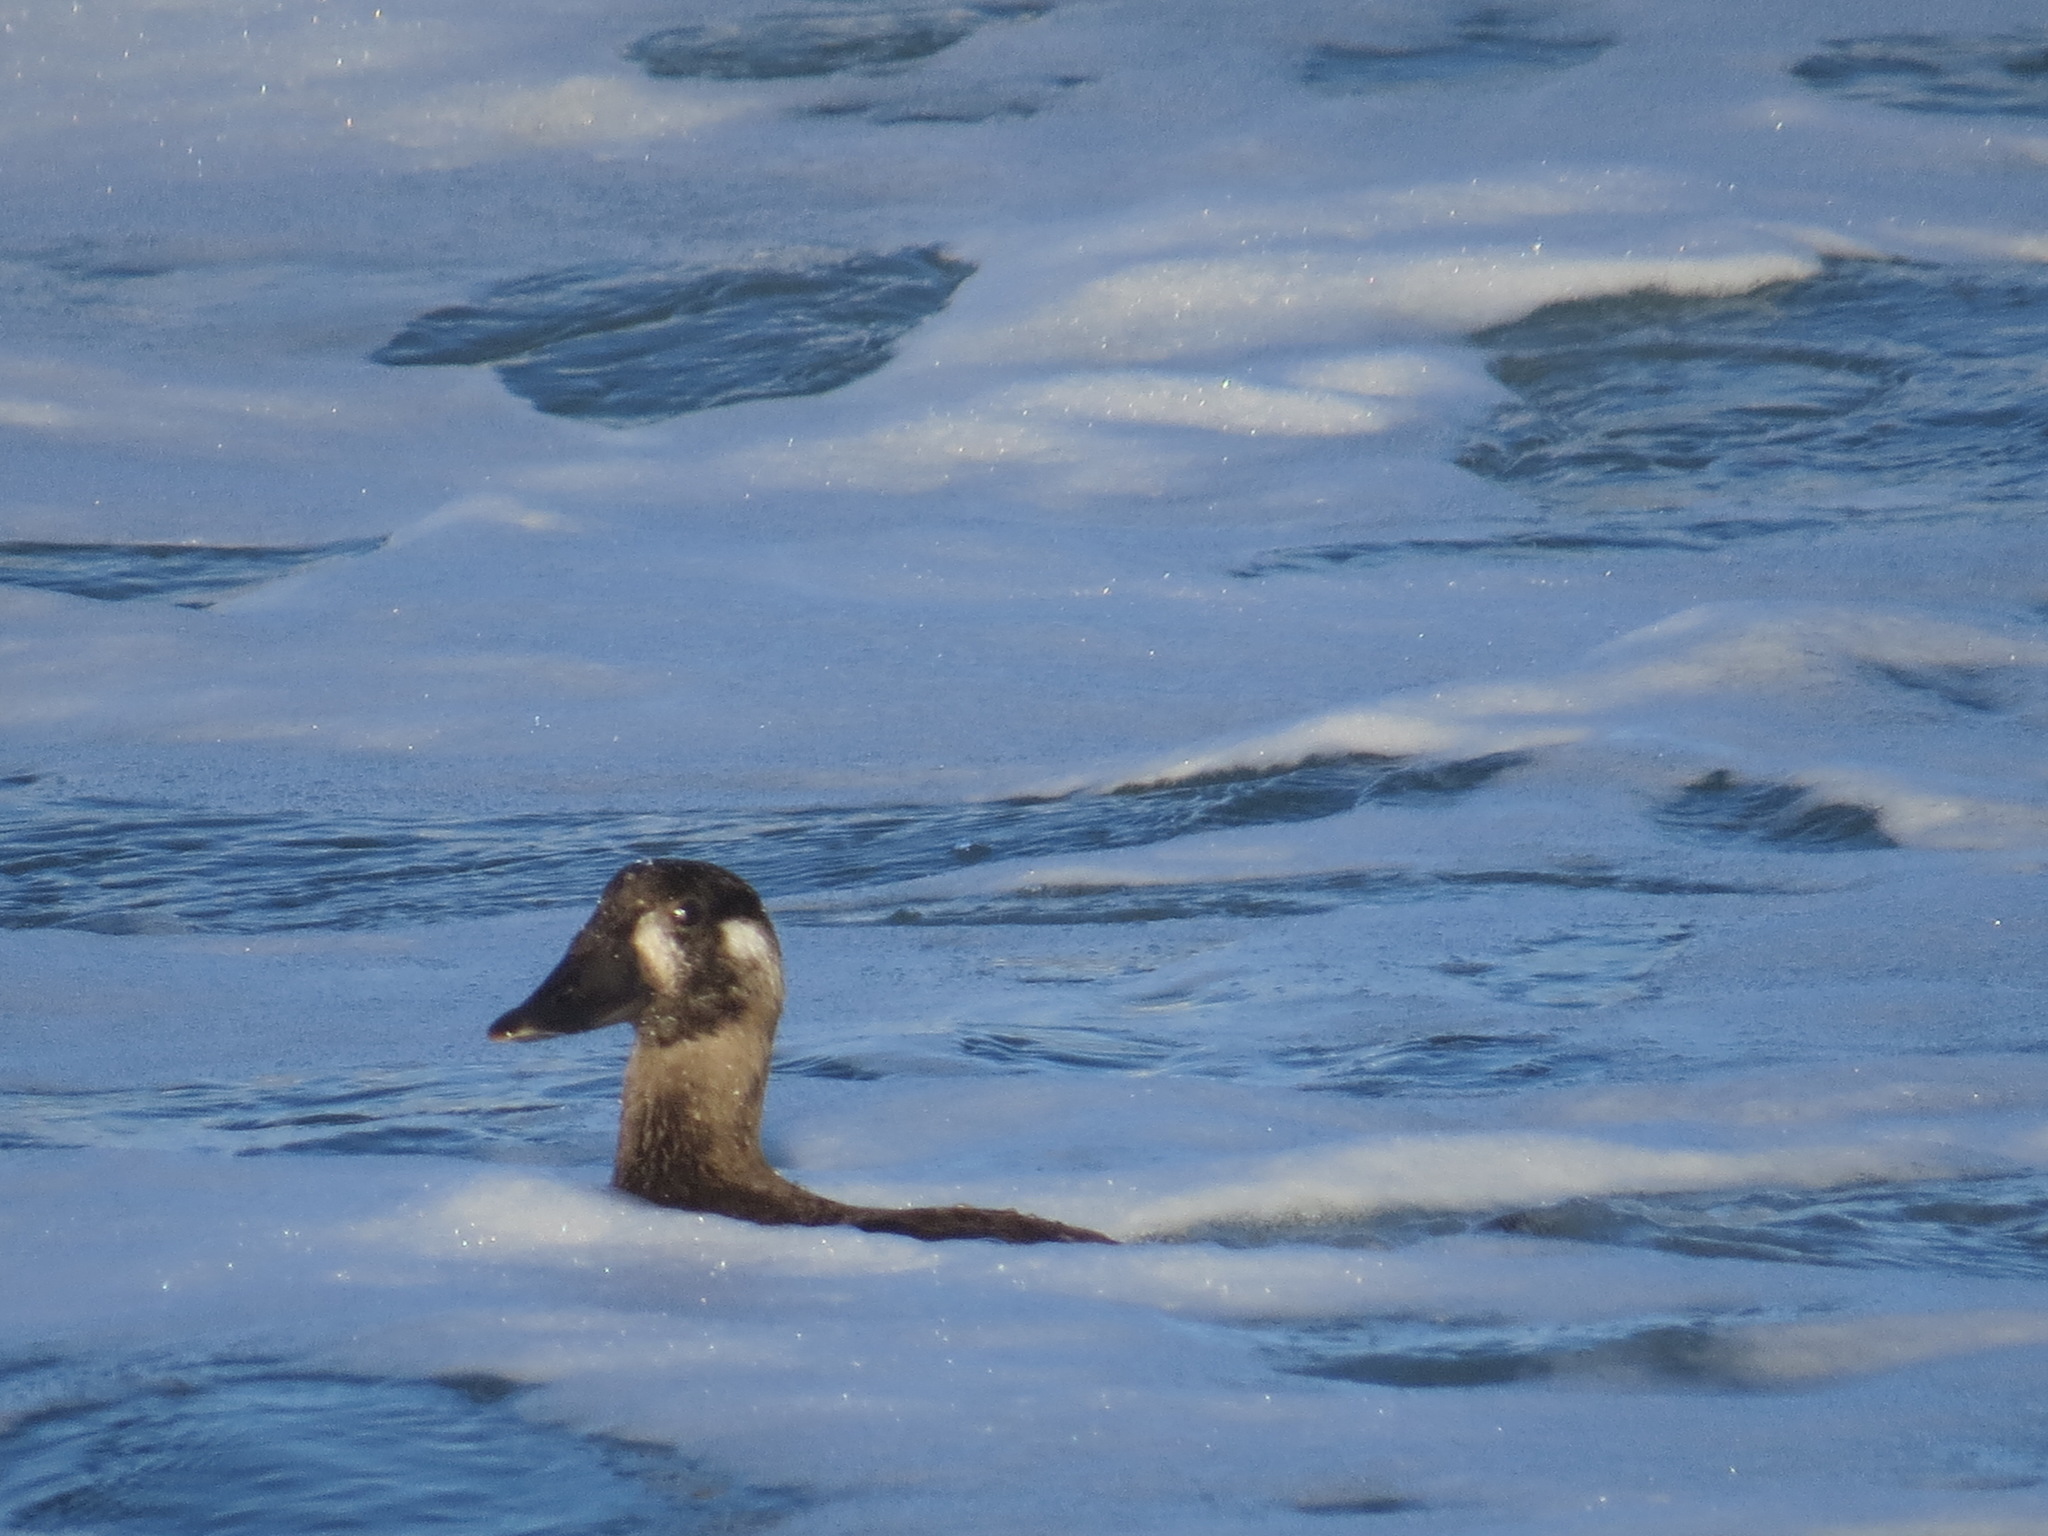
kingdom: Animalia
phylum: Chordata
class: Aves
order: Anseriformes
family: Anatidae
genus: Melanitta
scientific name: Melanitta perspicillata
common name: Surf scoter
